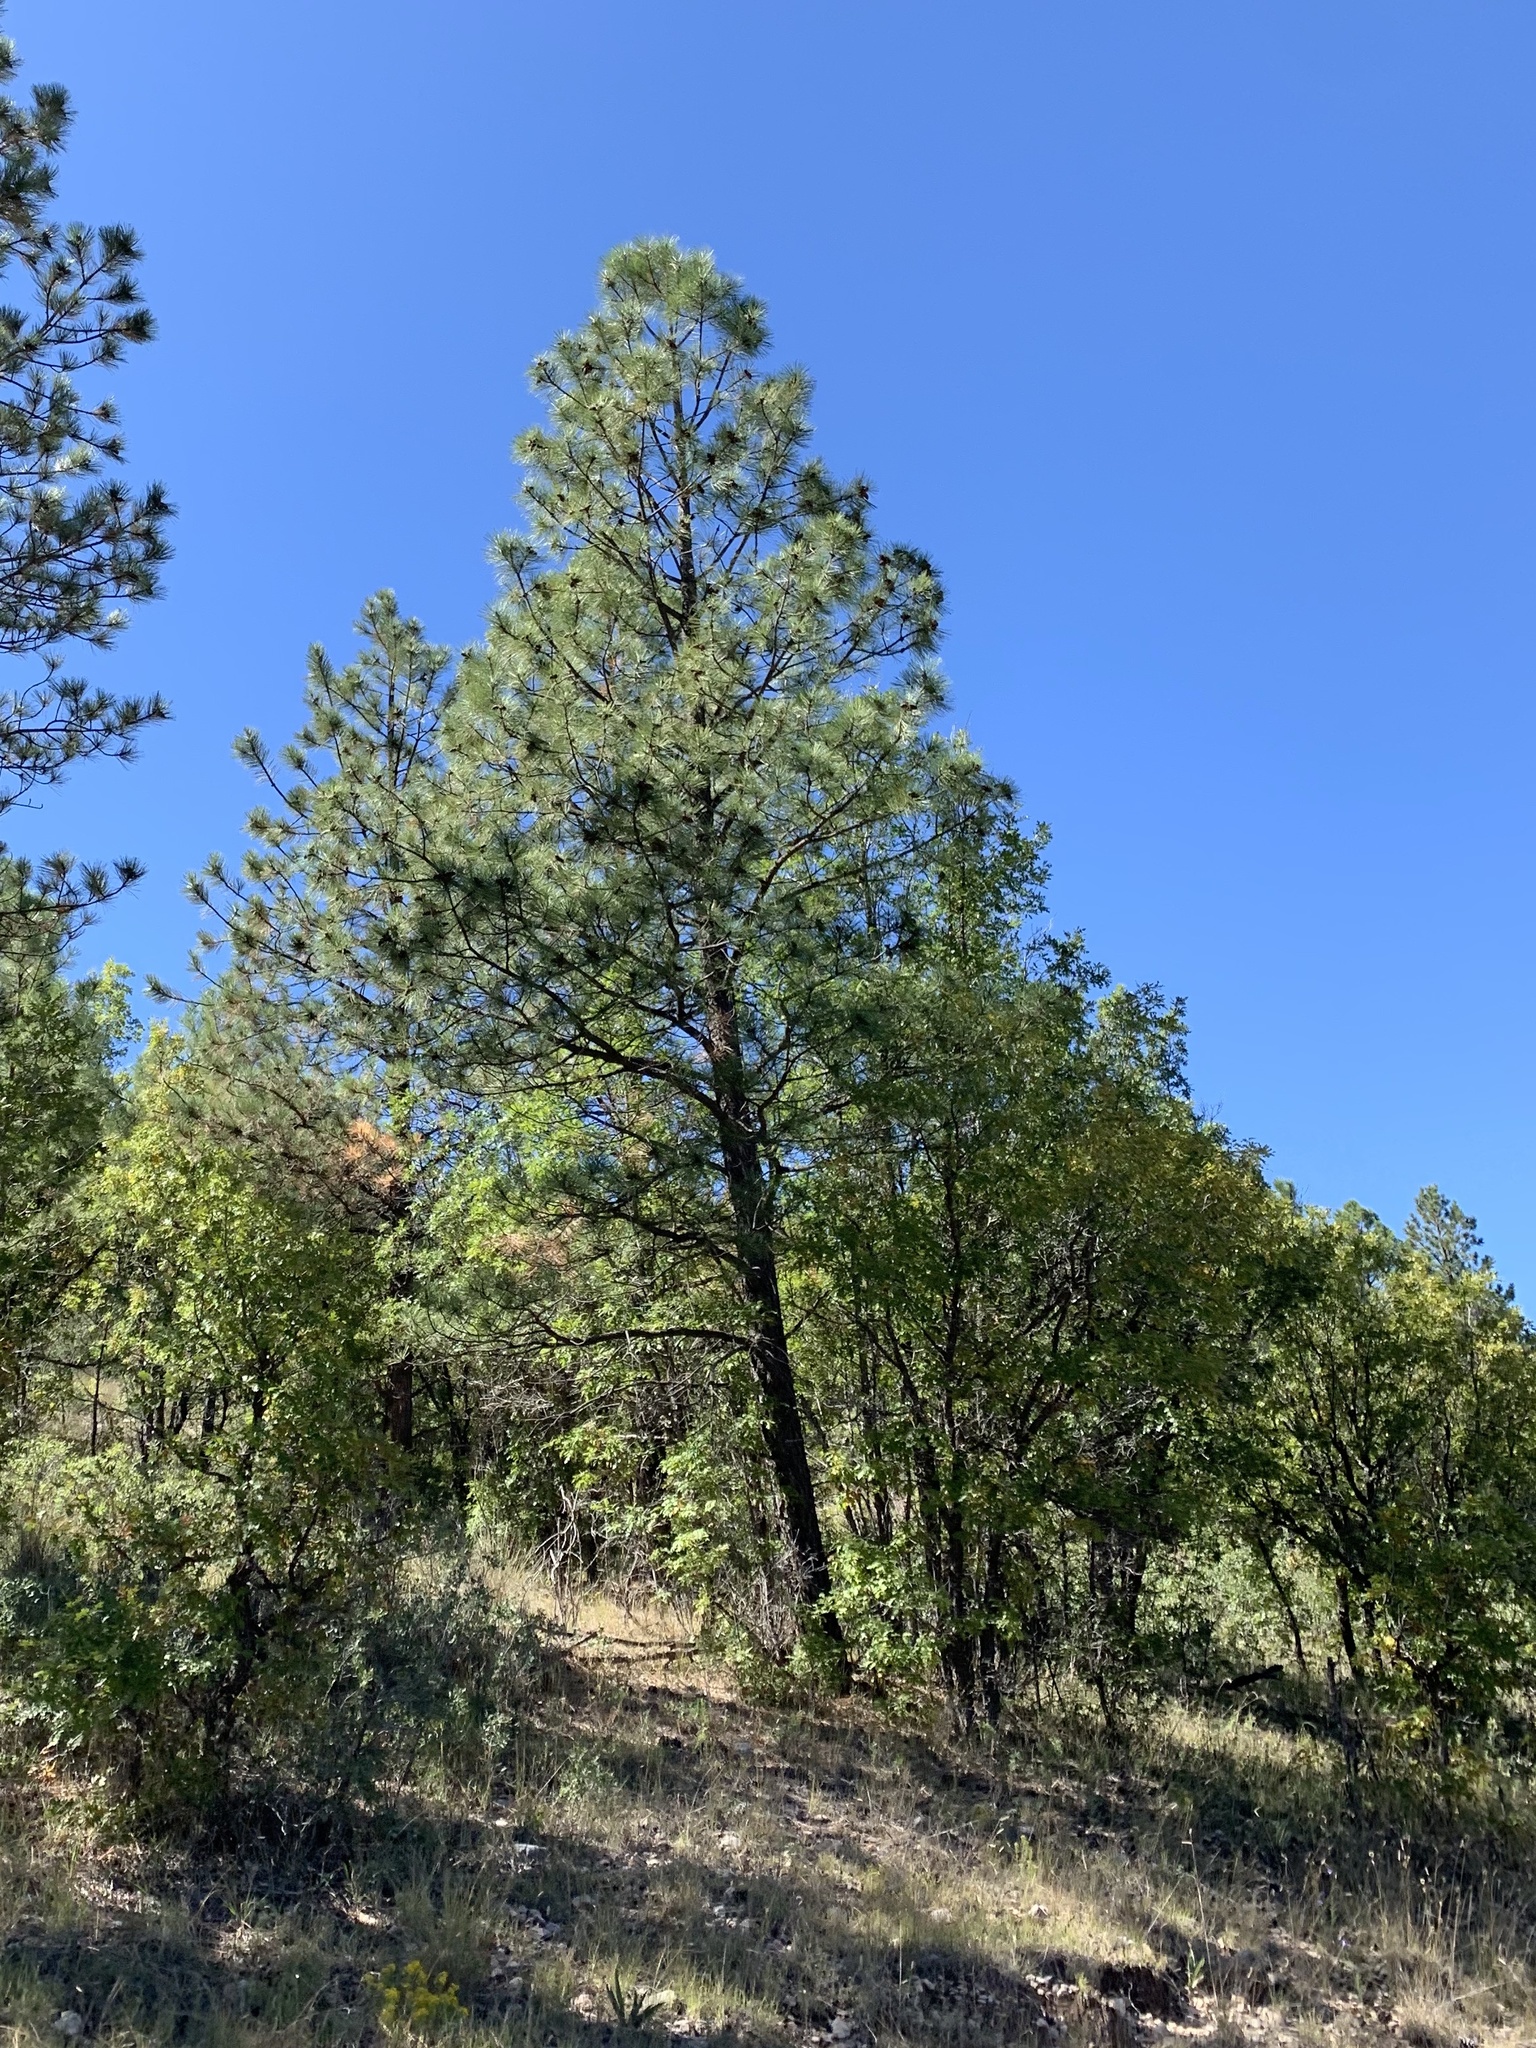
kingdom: Plantae
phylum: Tracheophyta
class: Pinopsida
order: Pinales
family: Pinaceae
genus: Pinus
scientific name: Pinus ponderosa
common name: Western yellow-pine
